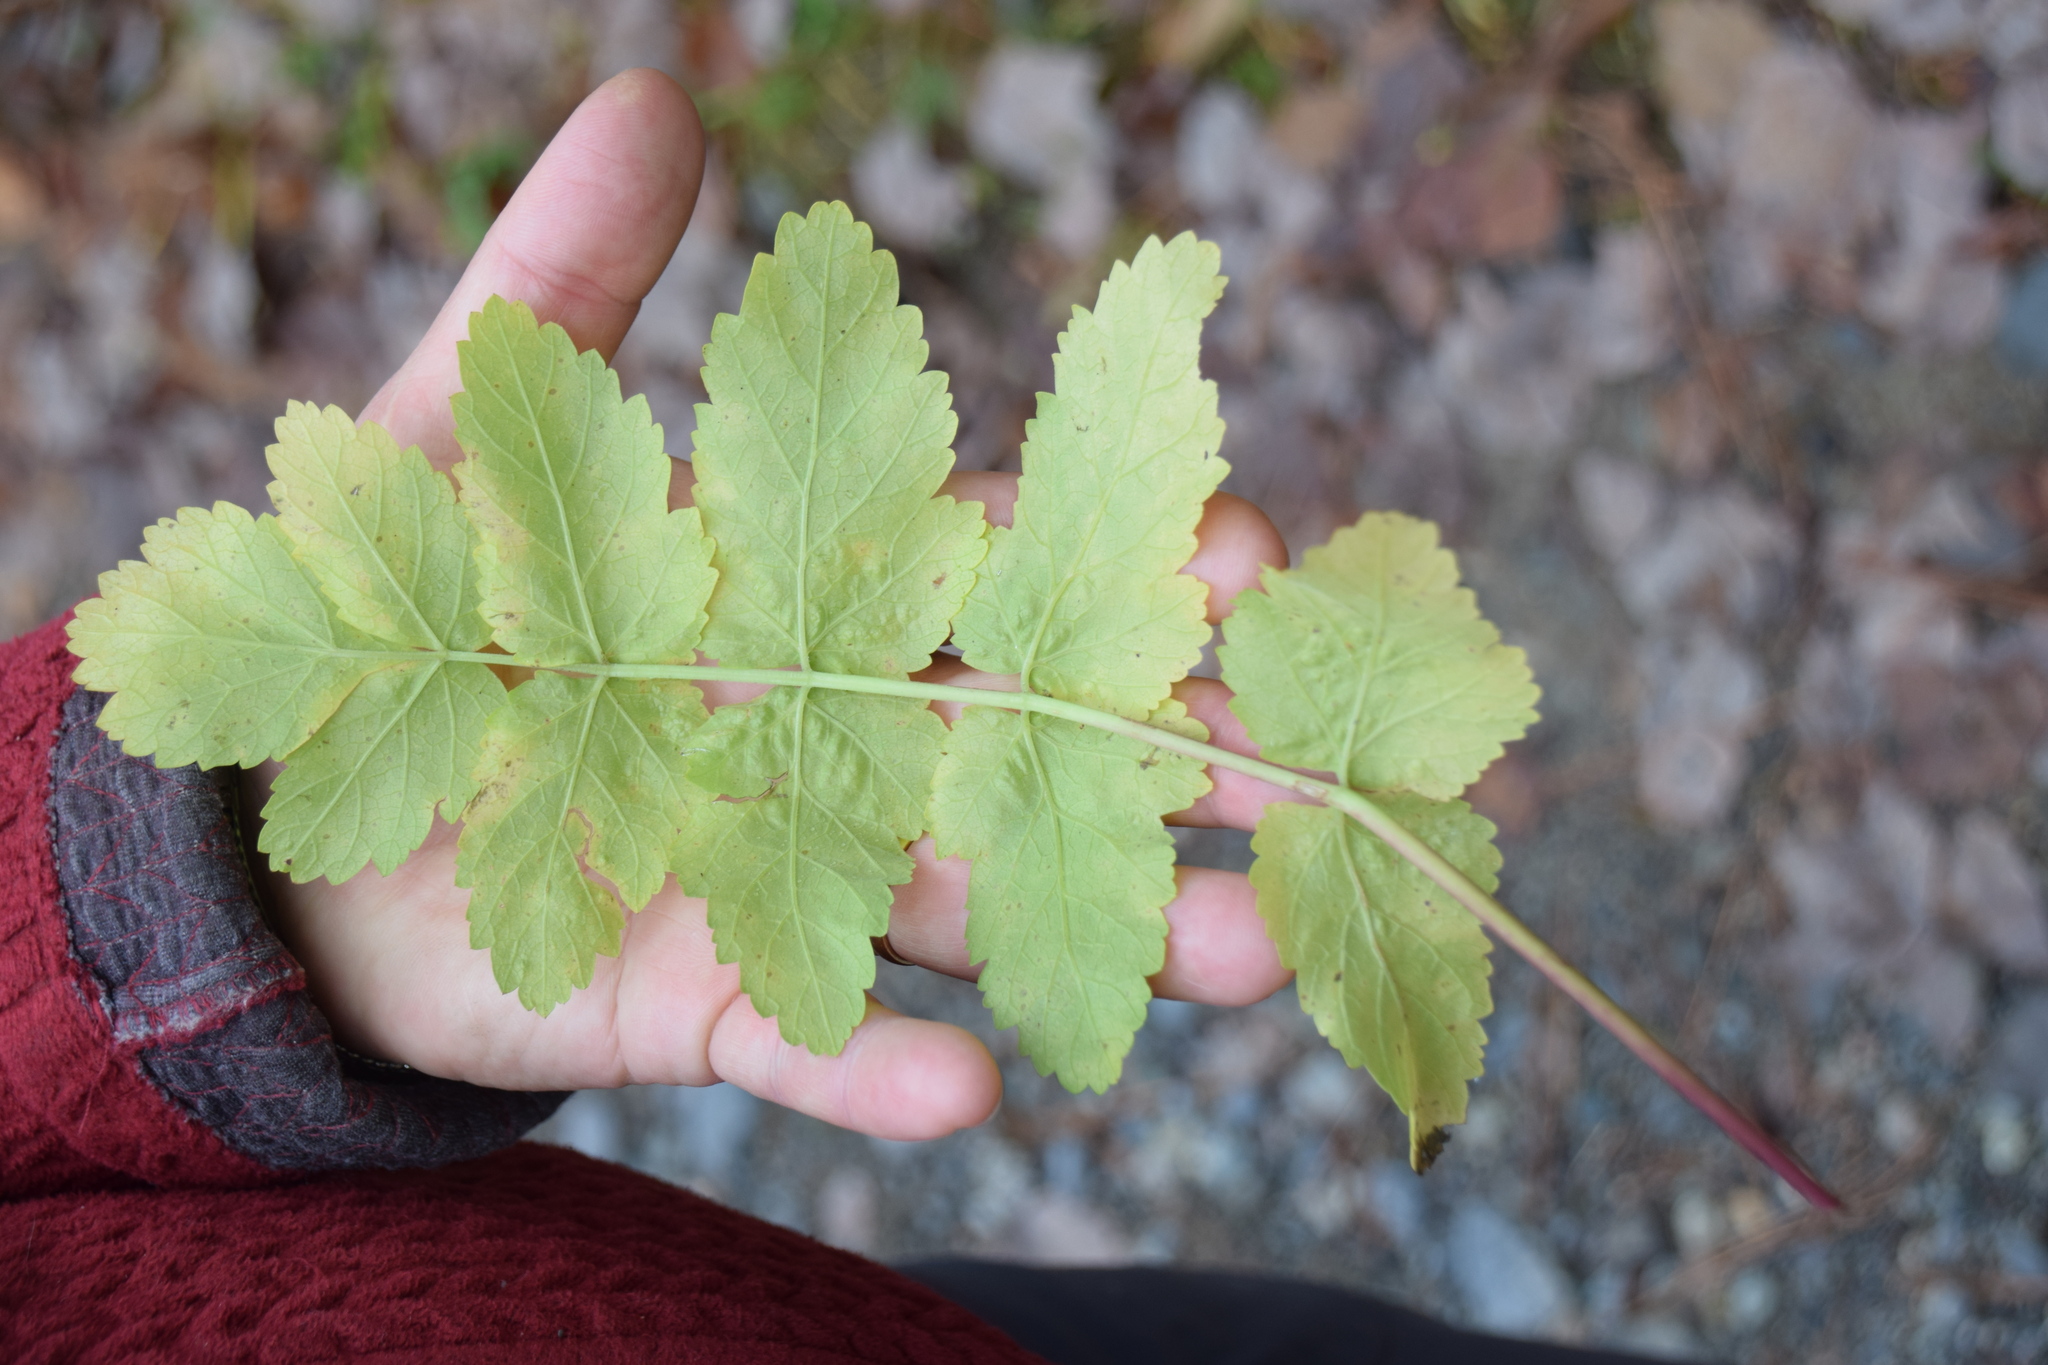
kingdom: Plantae
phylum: Tracheophyta
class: Magnoliopsida
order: Apiales
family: Apiaceae
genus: Pastinaca
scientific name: Pastinaca sativa
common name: Wild parsnip
